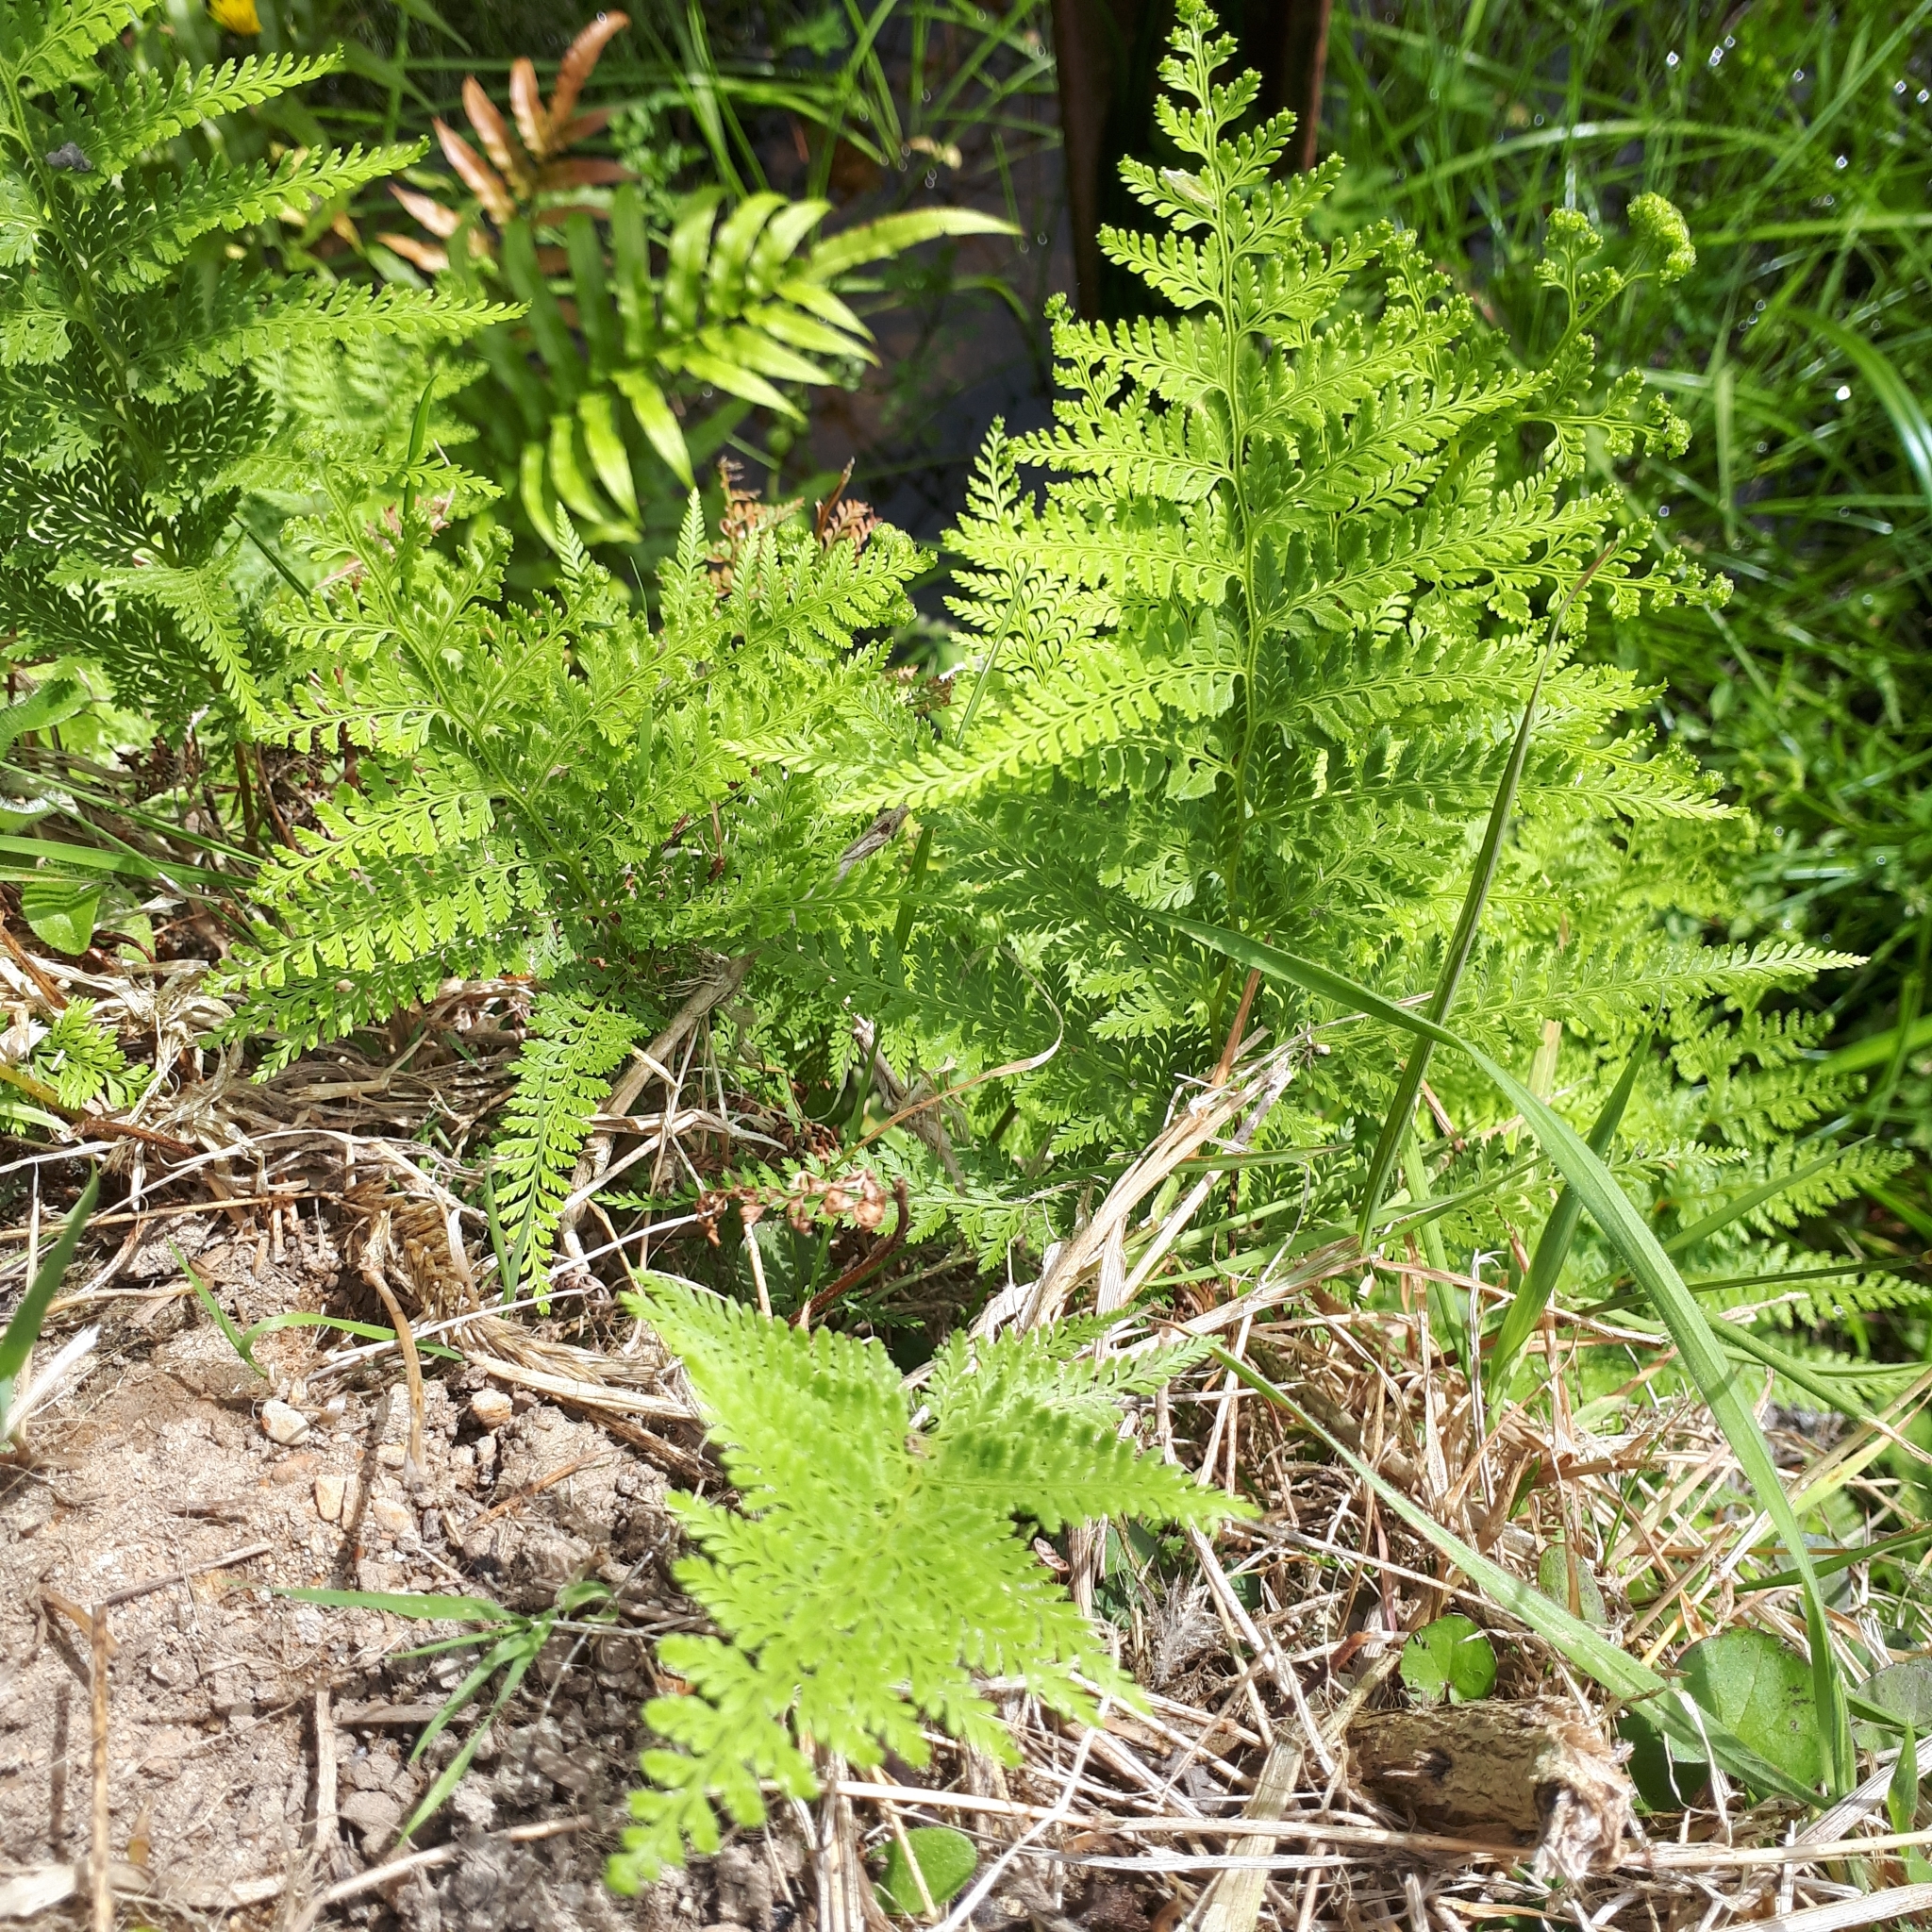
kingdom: Plantae
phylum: Tracheophyta
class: Polypodiopsida
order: Polypodiales
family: Dennstaedtiaceae
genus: Paesia
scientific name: Paesia scaberula
